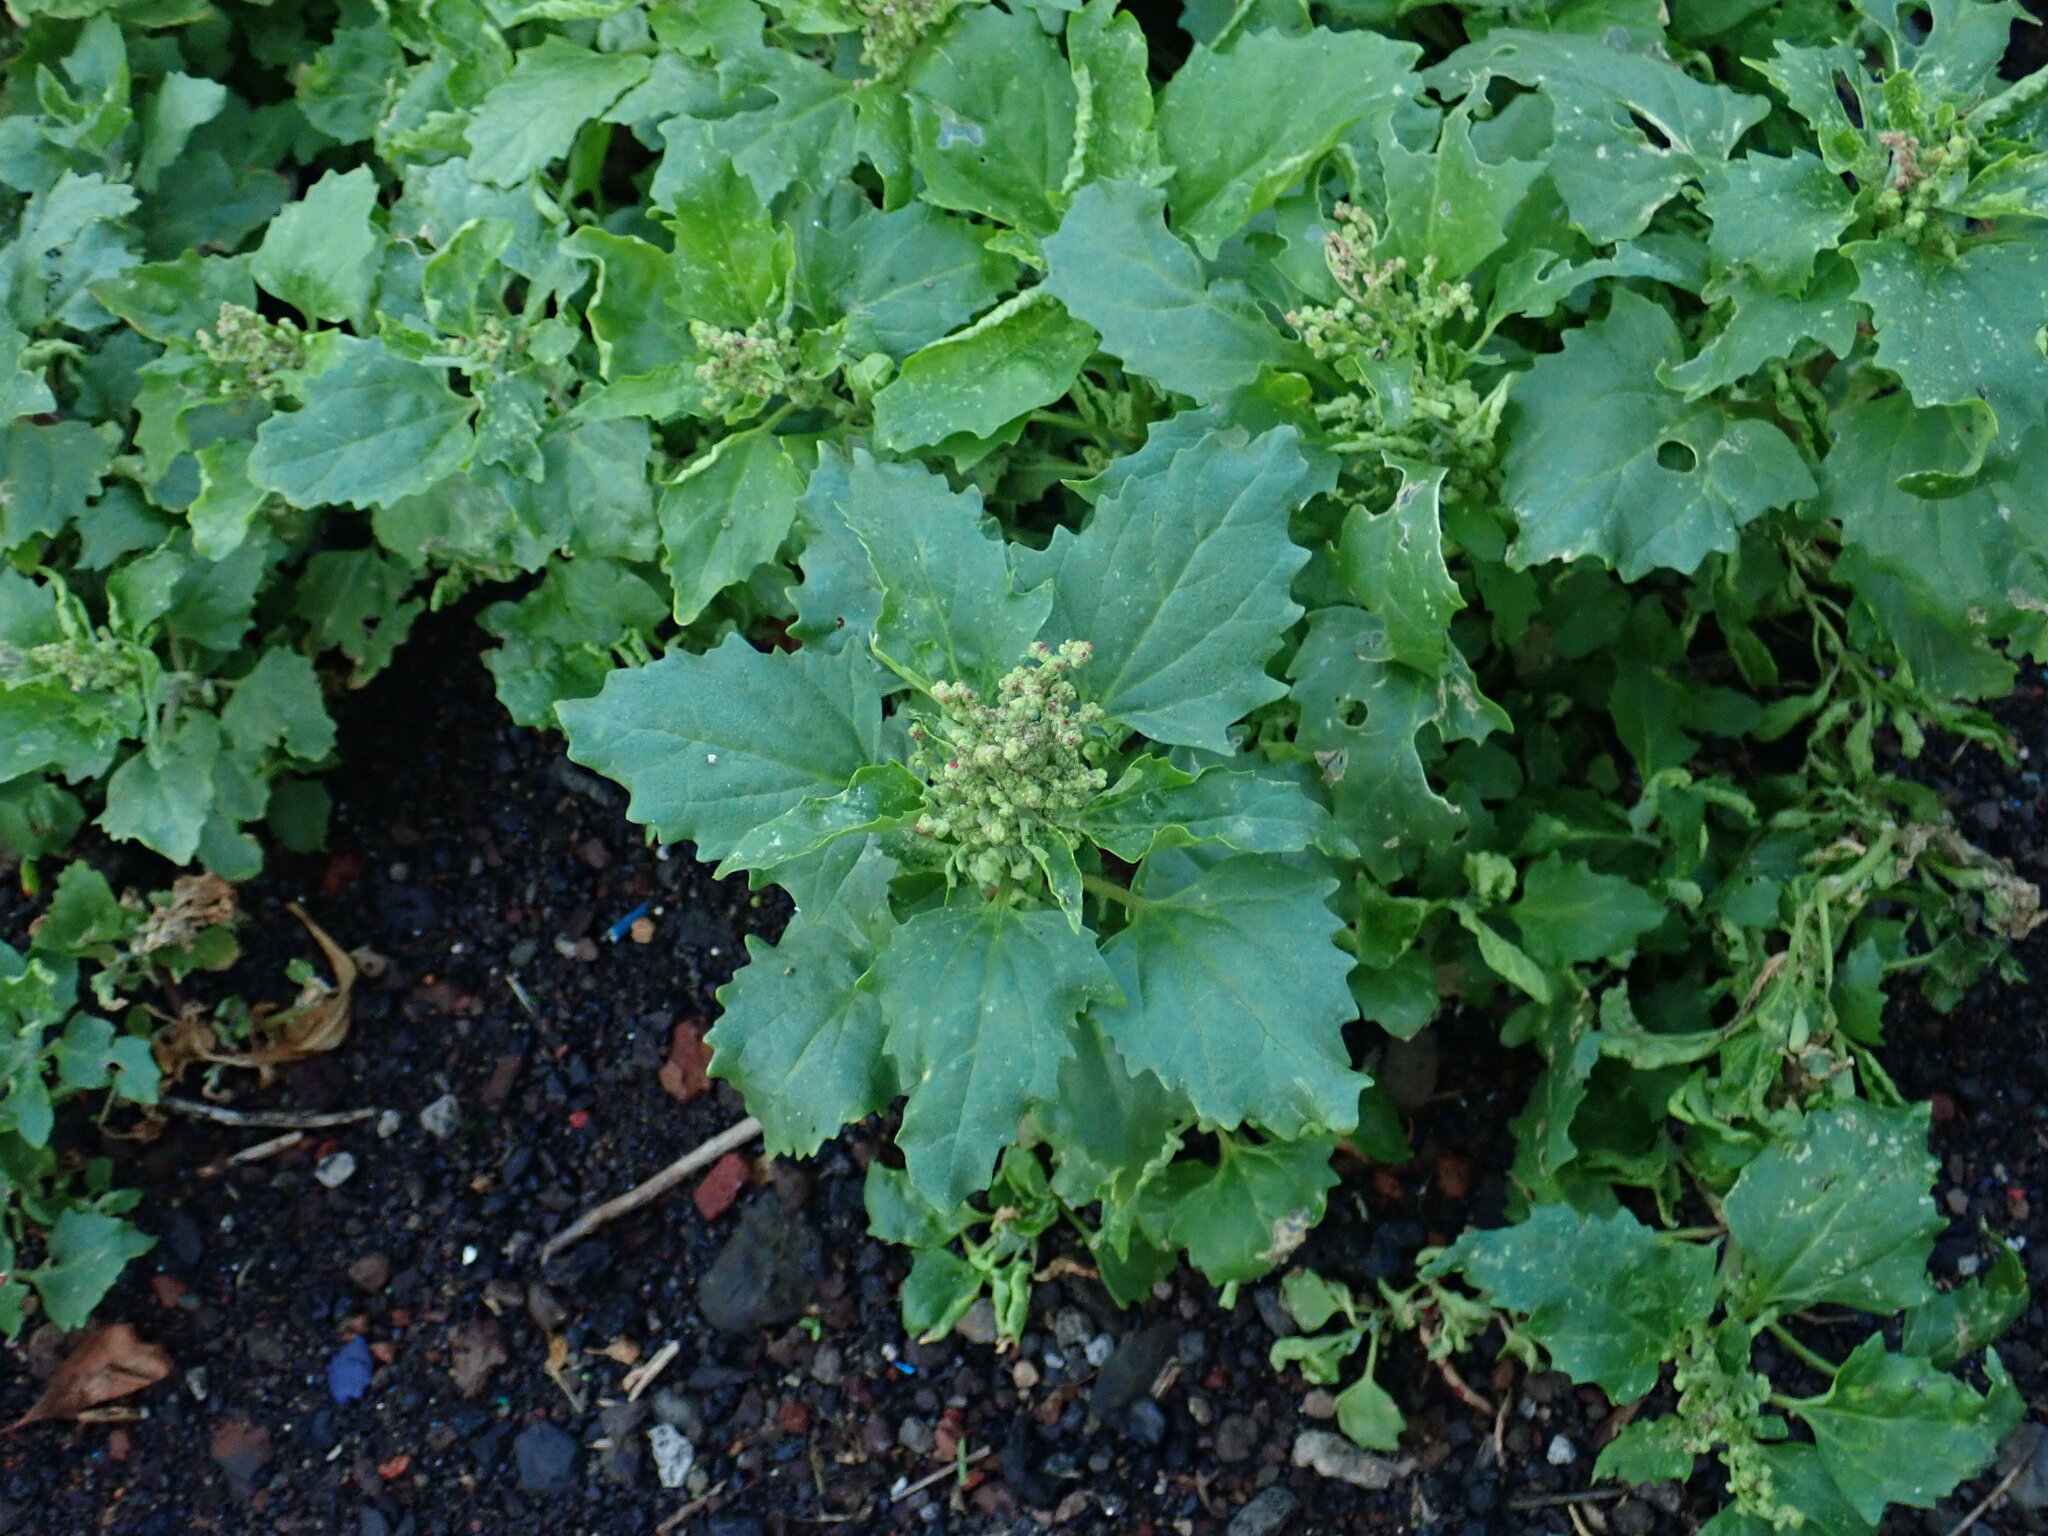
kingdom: Plantae
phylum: Tracheophyta
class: Magnoliopsida
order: Caryophyllales
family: Amaranthaceae
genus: Chenopodiastrum
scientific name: Chenopodiastrum murale
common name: Sowbane
